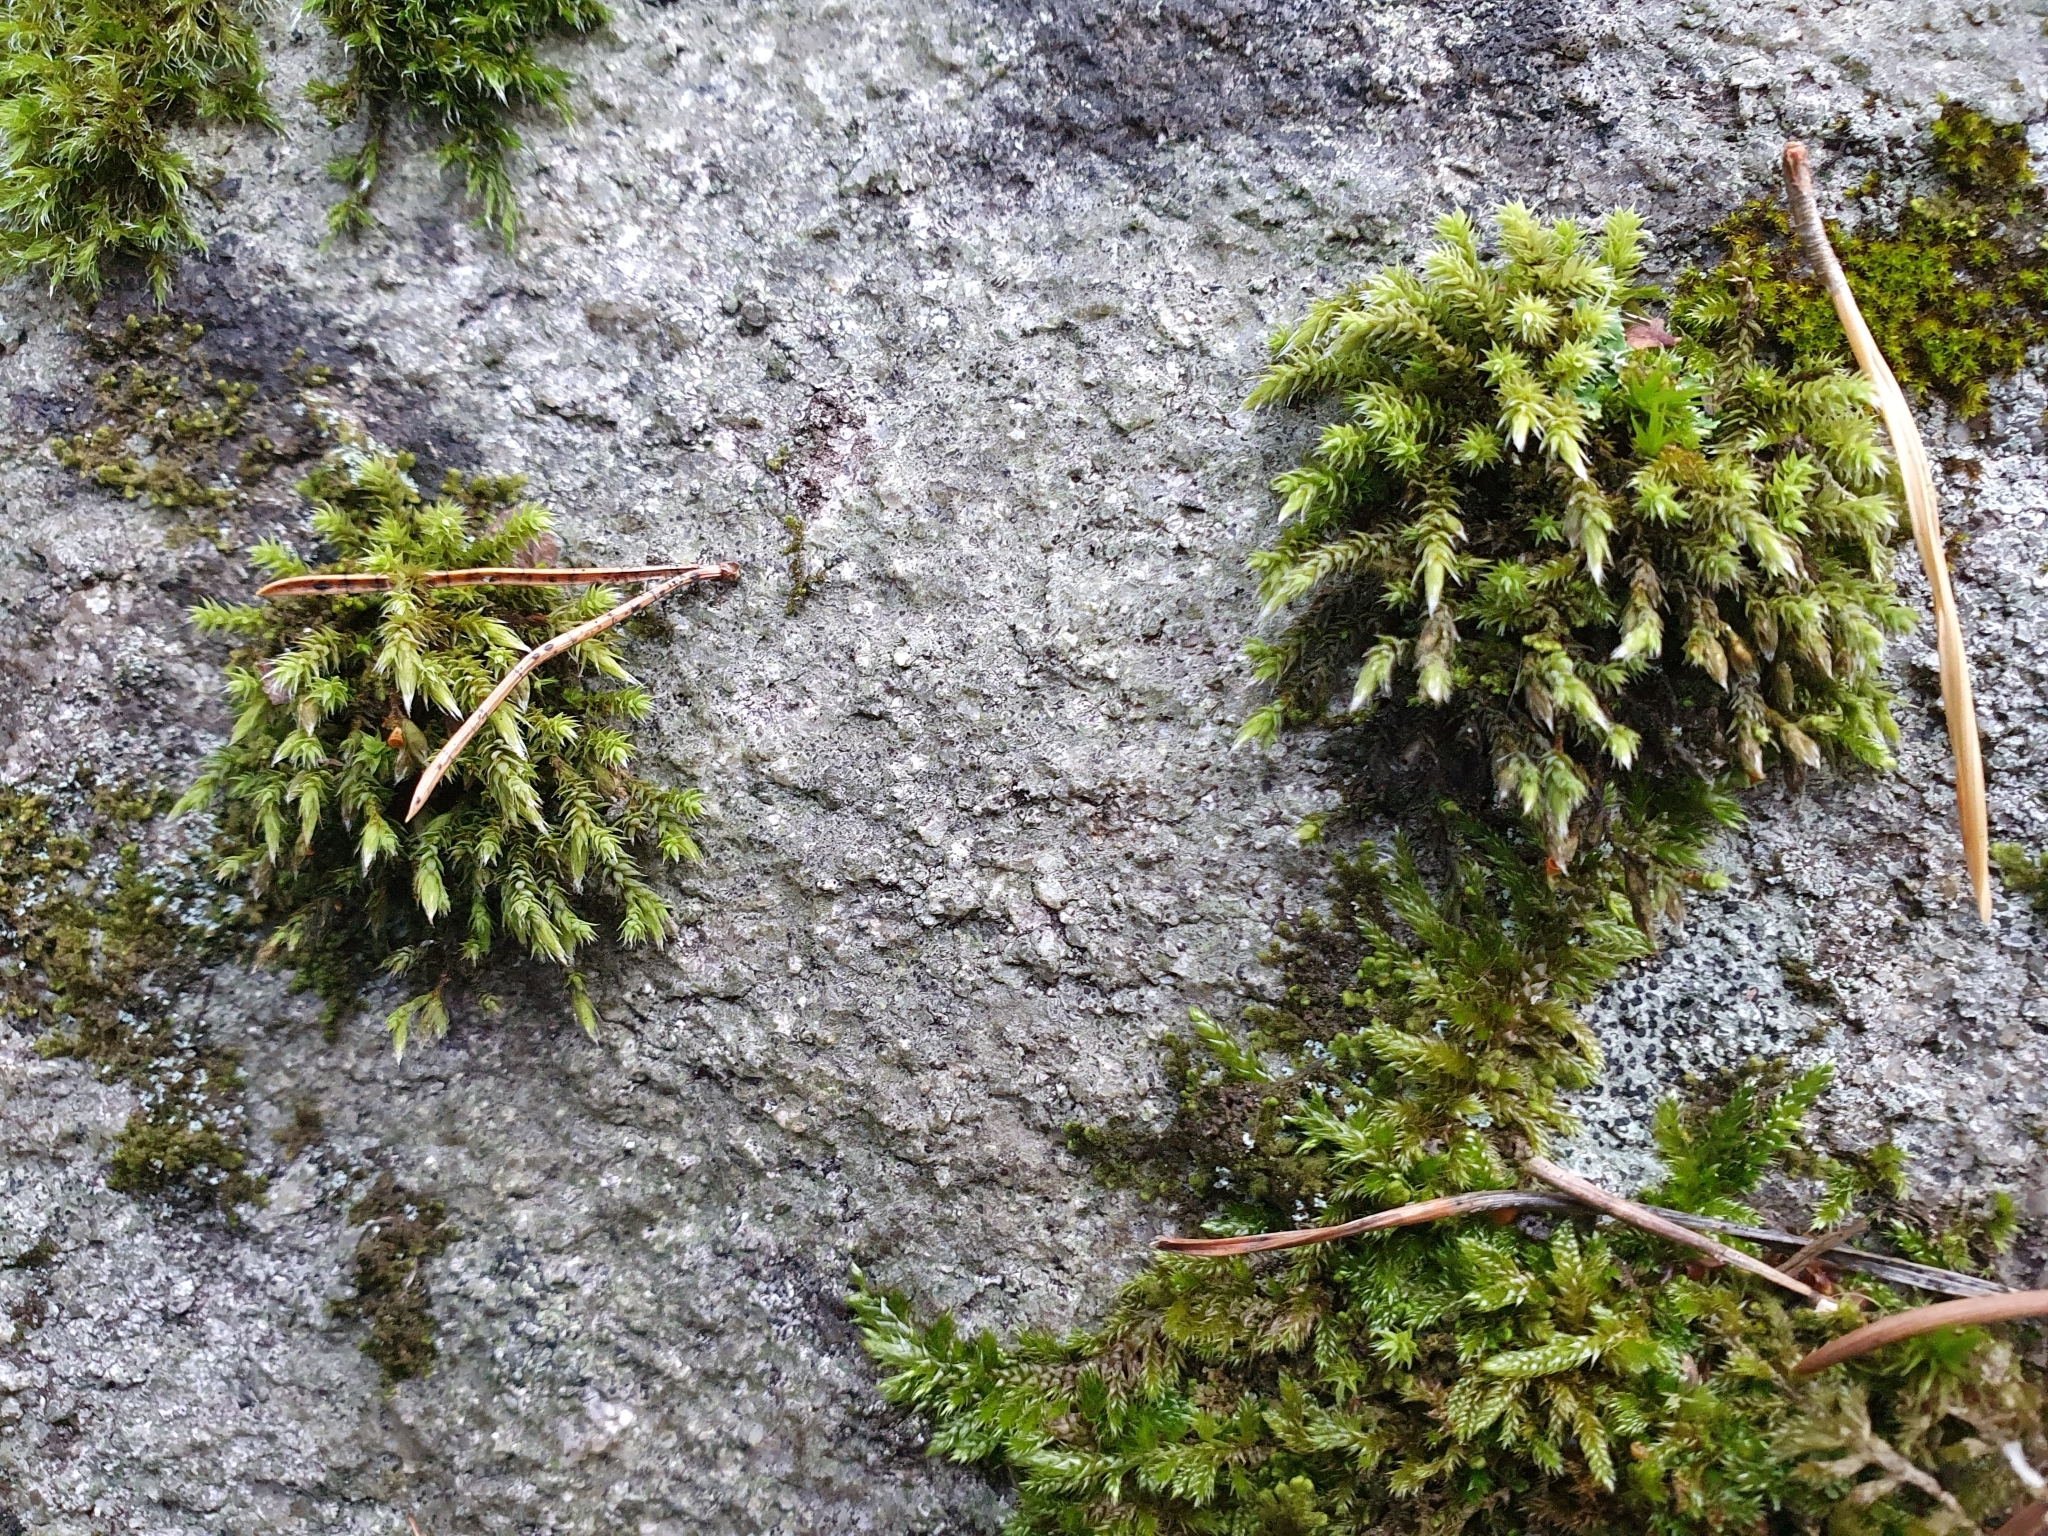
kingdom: Plantae
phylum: Bryophyta
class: Bryopsida
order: Hedwigiales
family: Hedwigiaceae
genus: Hedwigia
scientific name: Hedwigia ciliata
